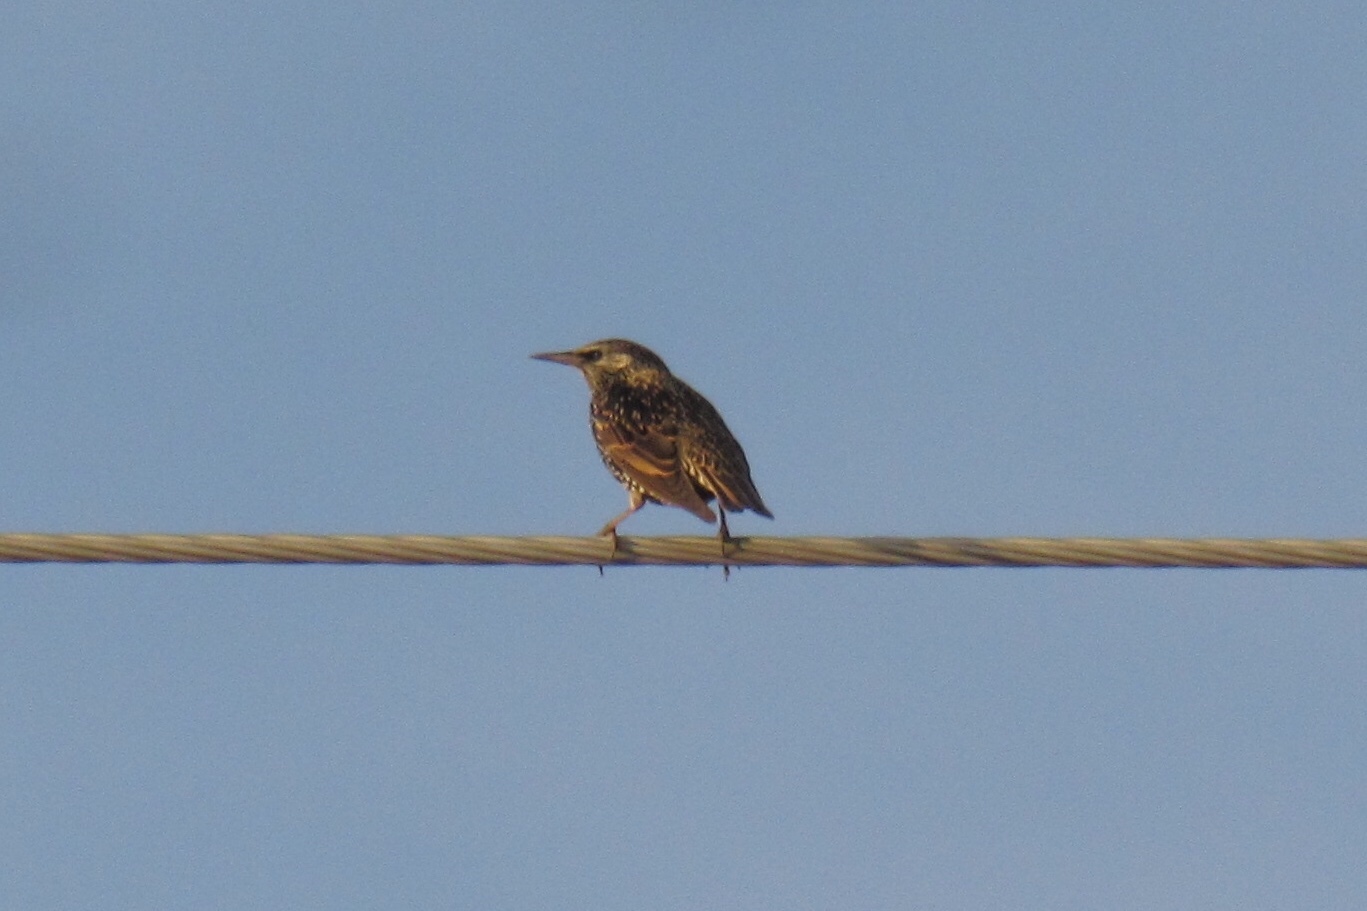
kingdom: Animalia
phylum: Chordata
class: Aves
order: Passeriformes
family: Sturnidae
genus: Sturnus
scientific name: Sturnus vulgaris
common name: Common starling
